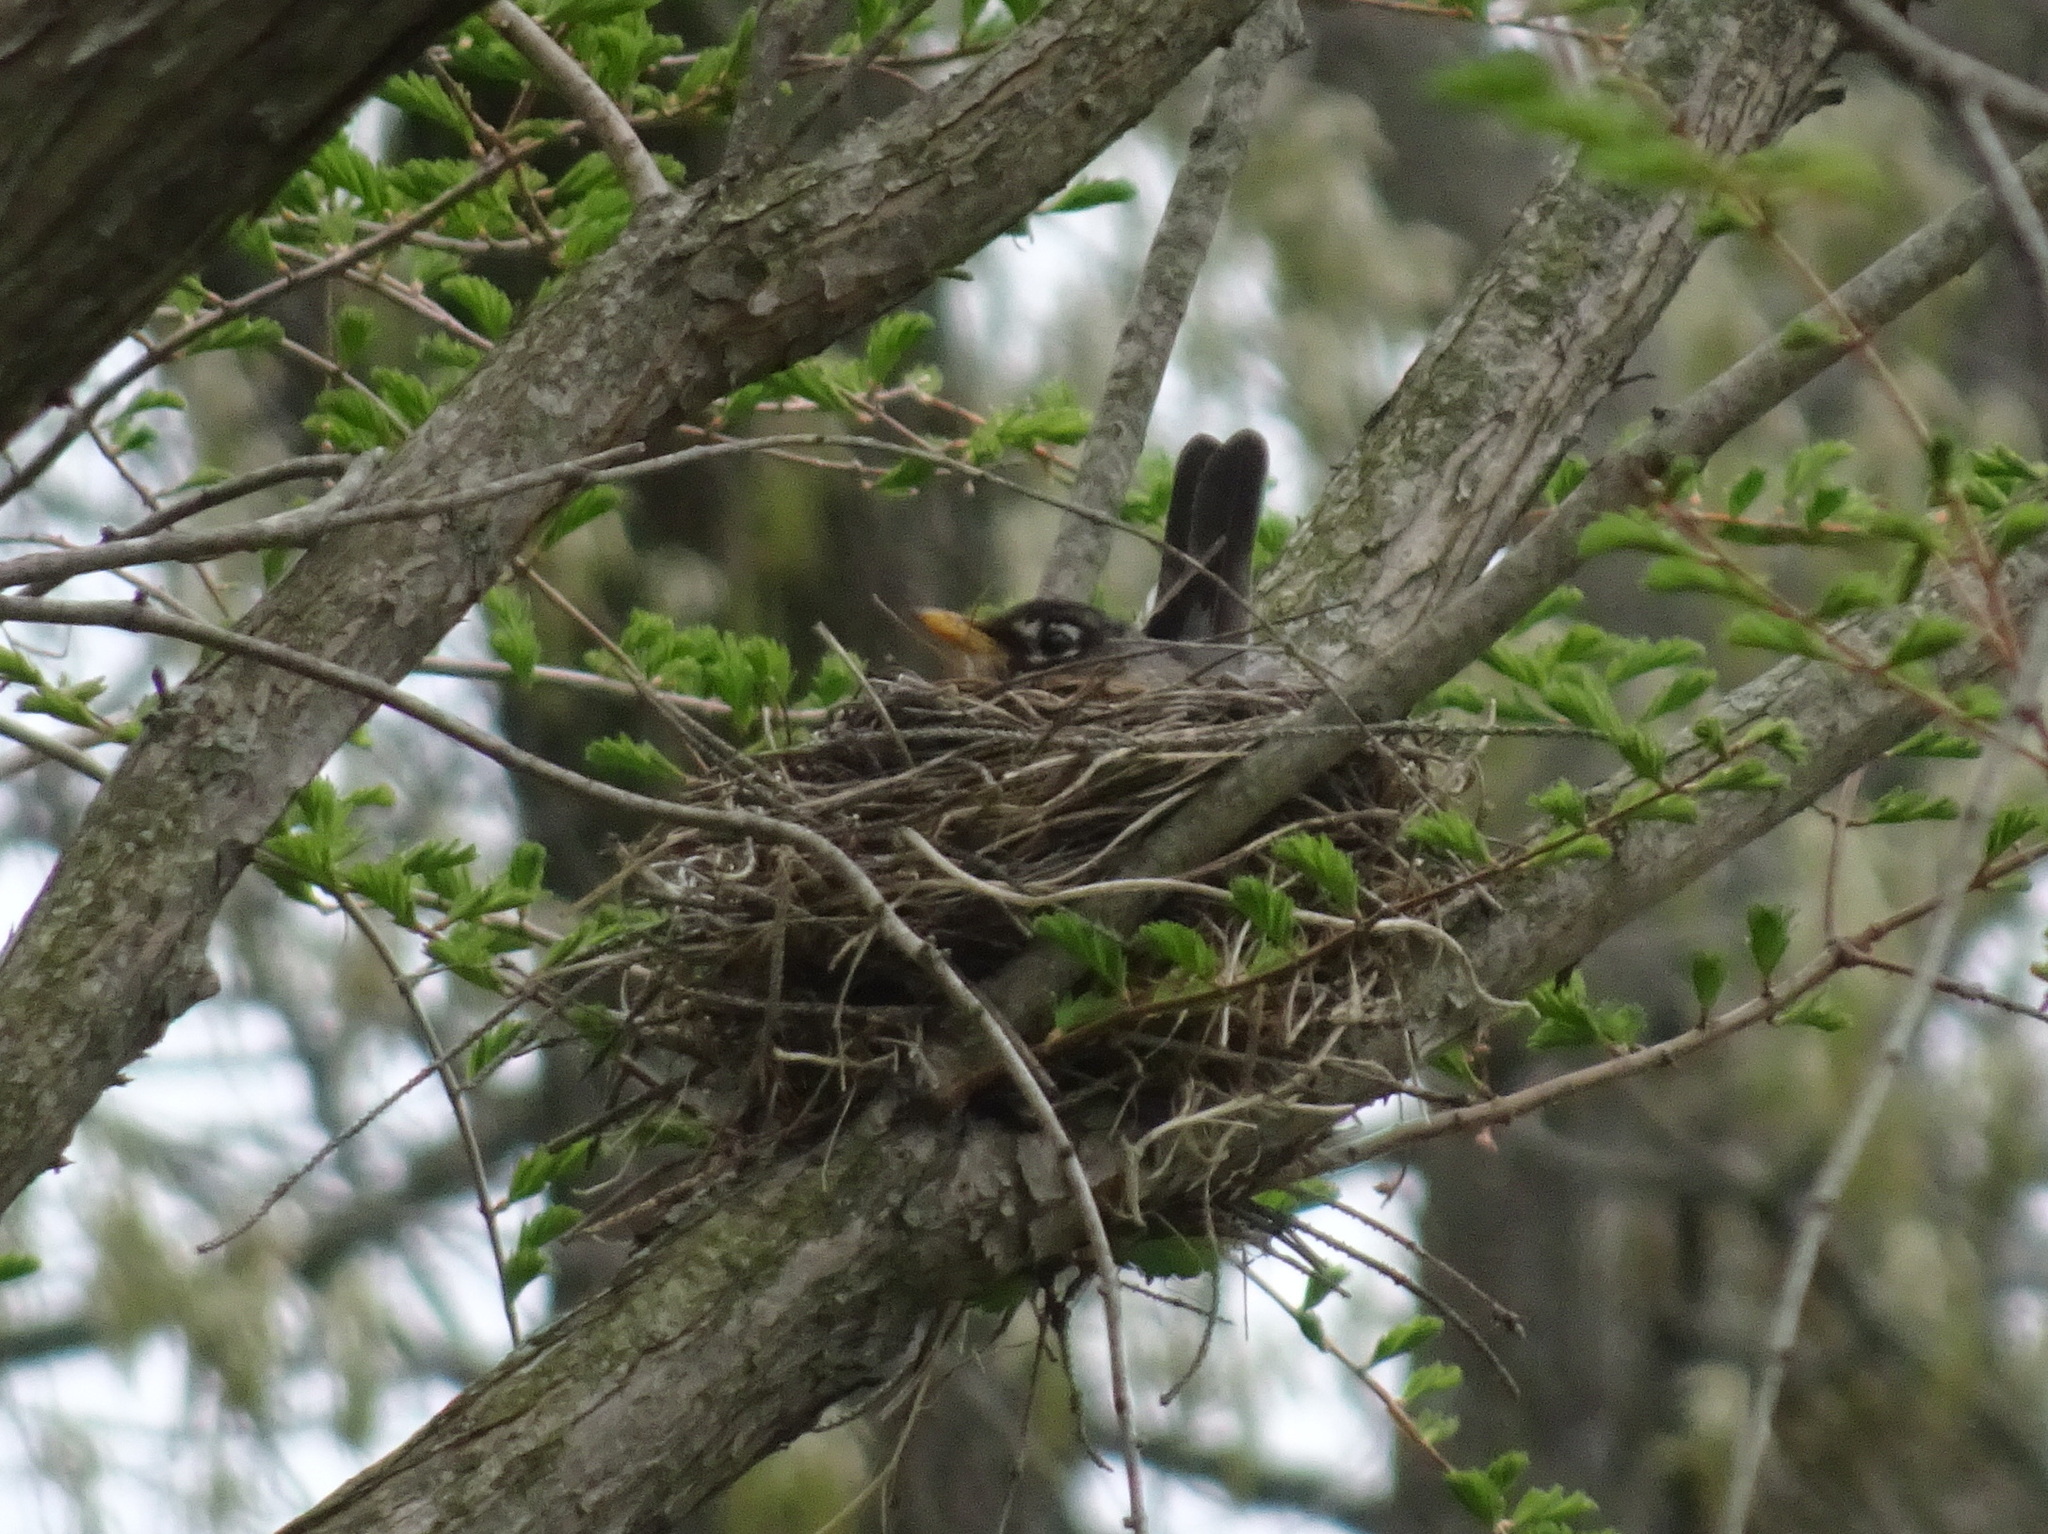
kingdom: Animalia
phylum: Chordata
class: Aves
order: Passeriformes
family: Turdidae
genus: Turdus
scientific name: Turdus migratorius
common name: American robin
